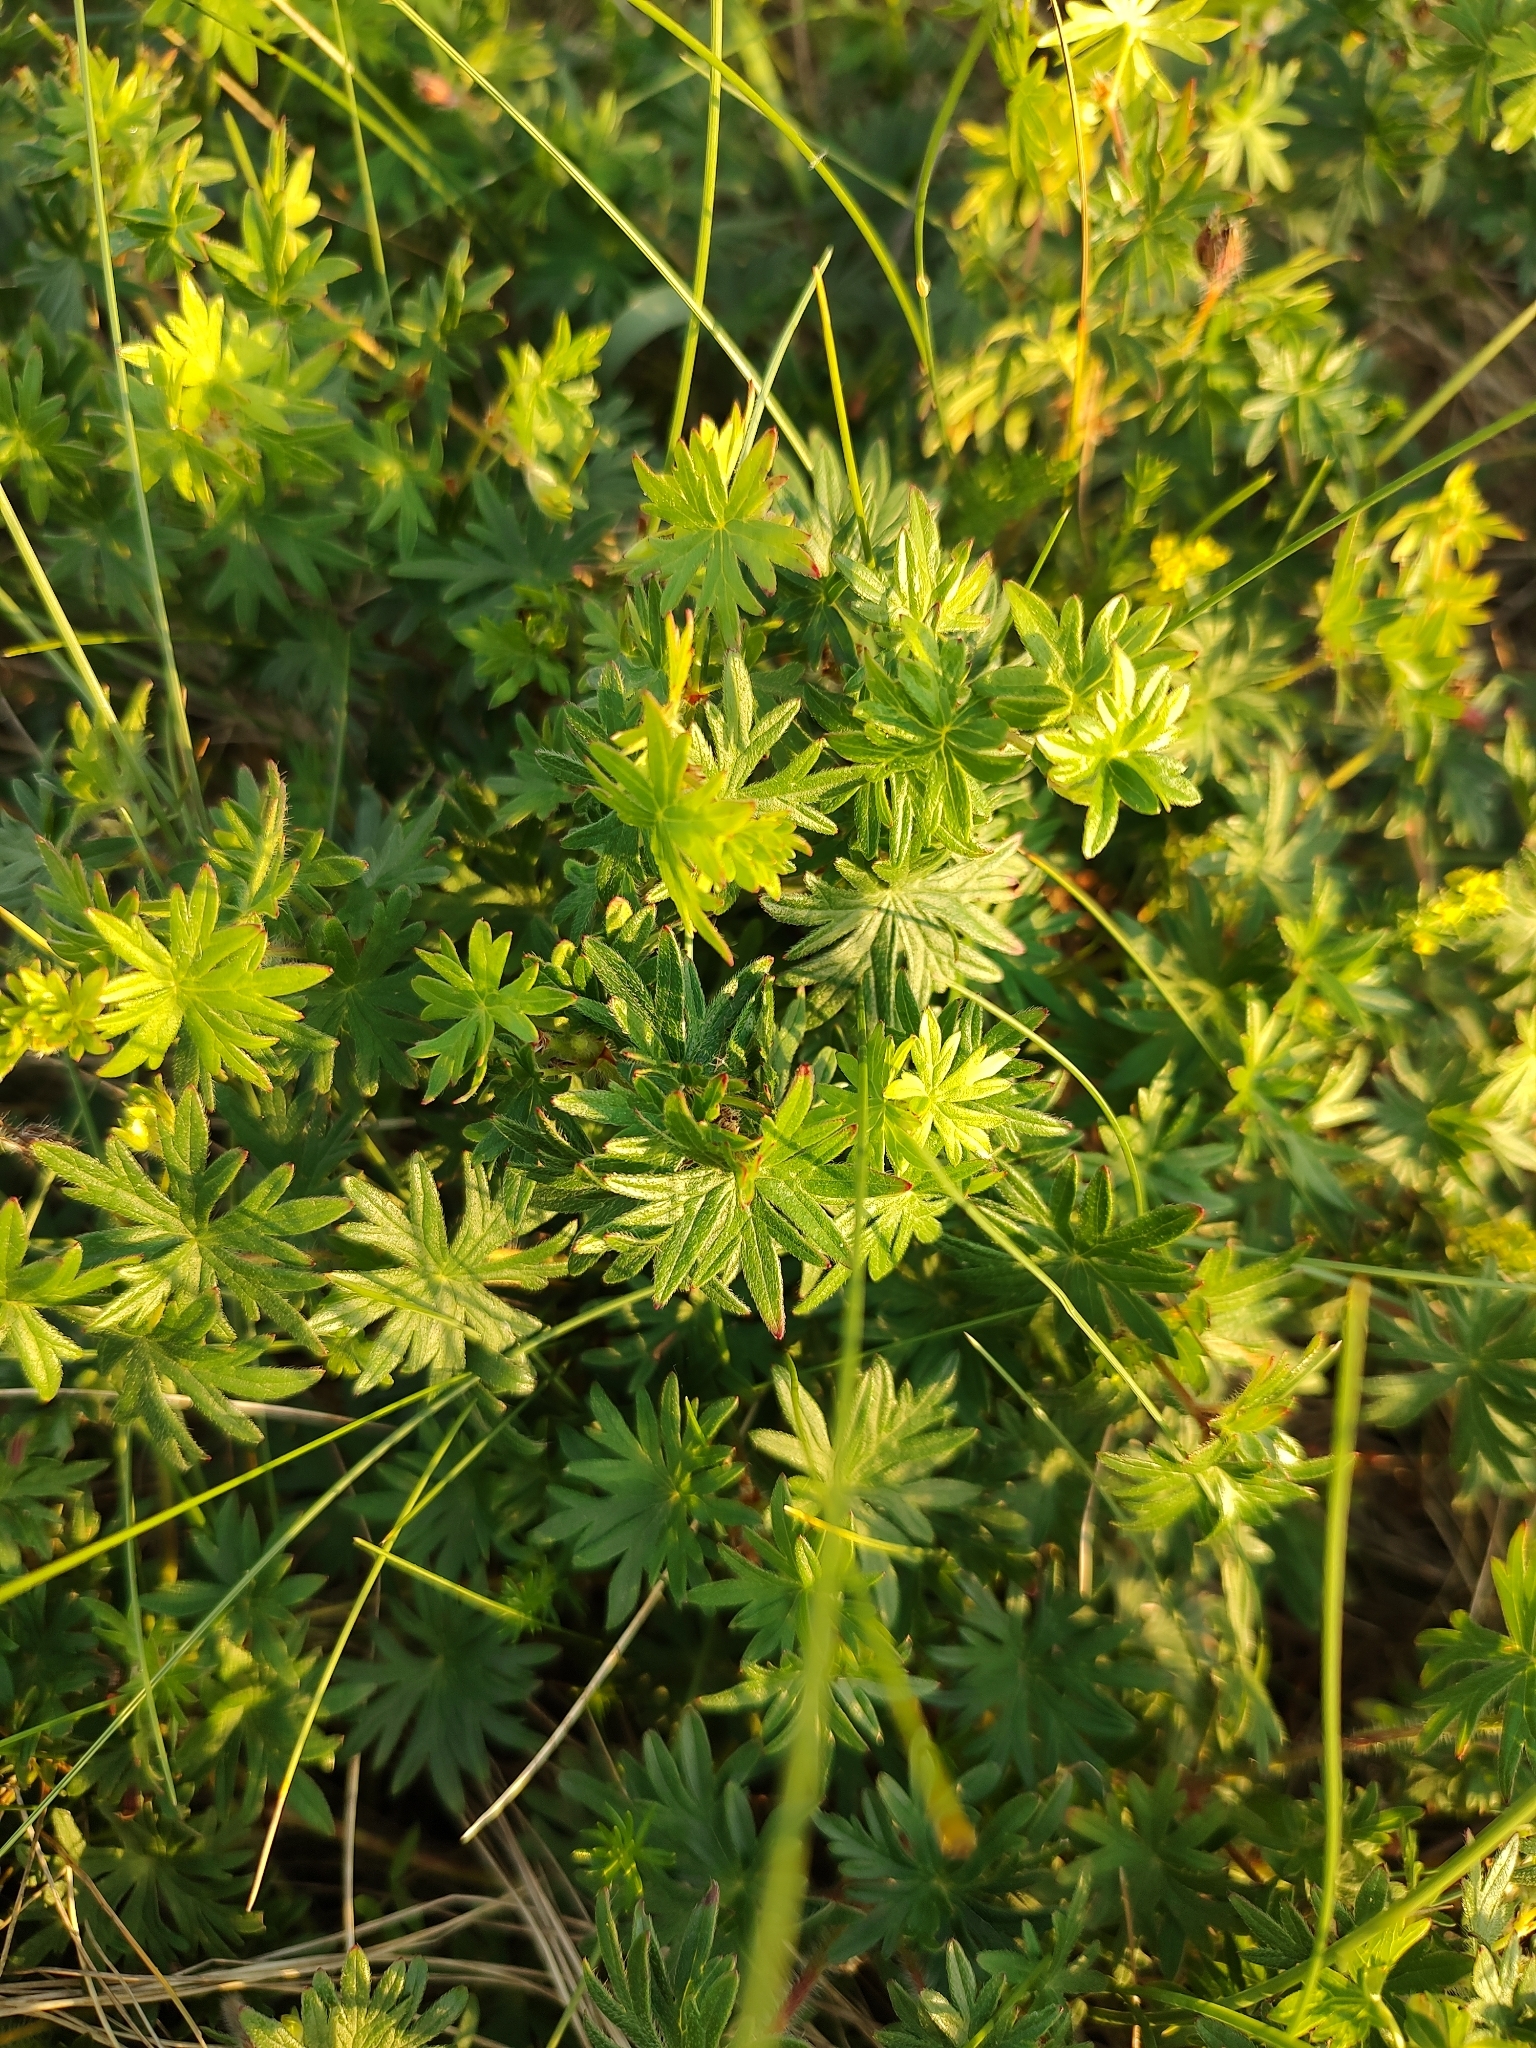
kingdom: Plantae
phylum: Tracheophyta
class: Magnoliopsida
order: Geraniales
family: Geraniaceae
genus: Geranium
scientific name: Geranium sanguineum
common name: Bloody crane's-bill
